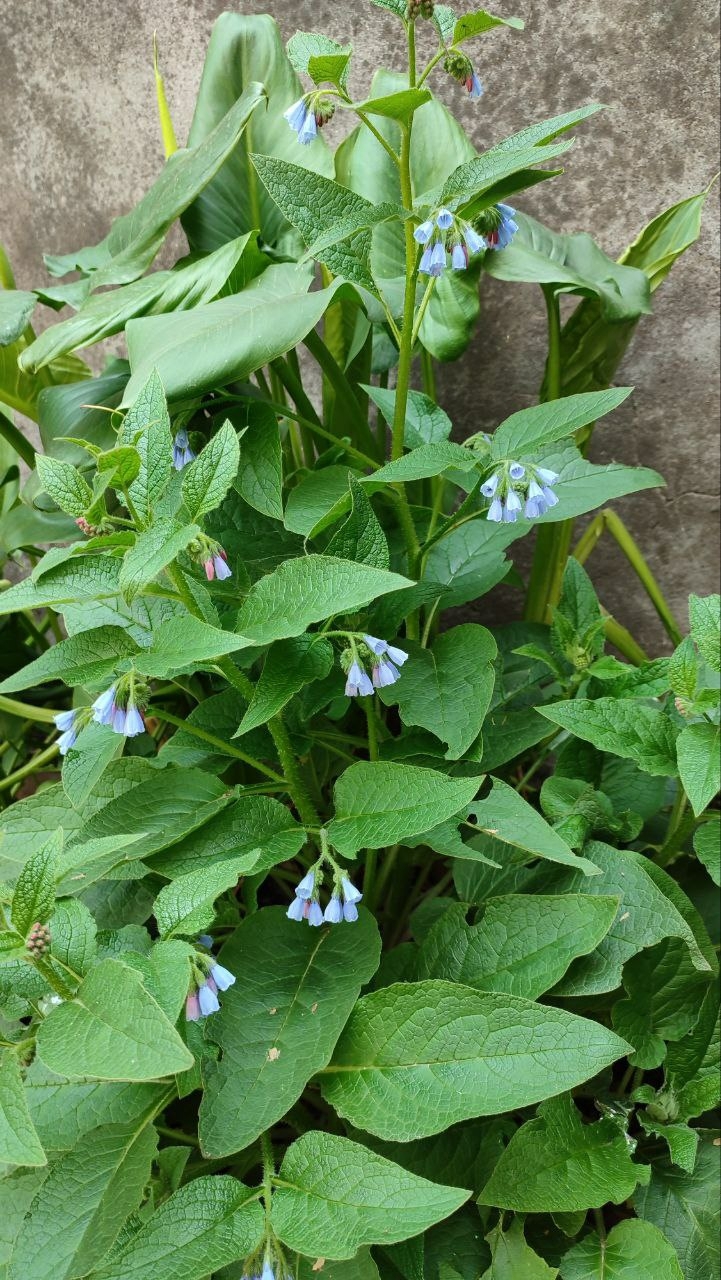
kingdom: Plantae
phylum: Tracheophyta
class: Magnoliopsida
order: Boraginales
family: Boraginaceae
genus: Symphytum
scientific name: Symphytum asperum
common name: Prickly comfrey
